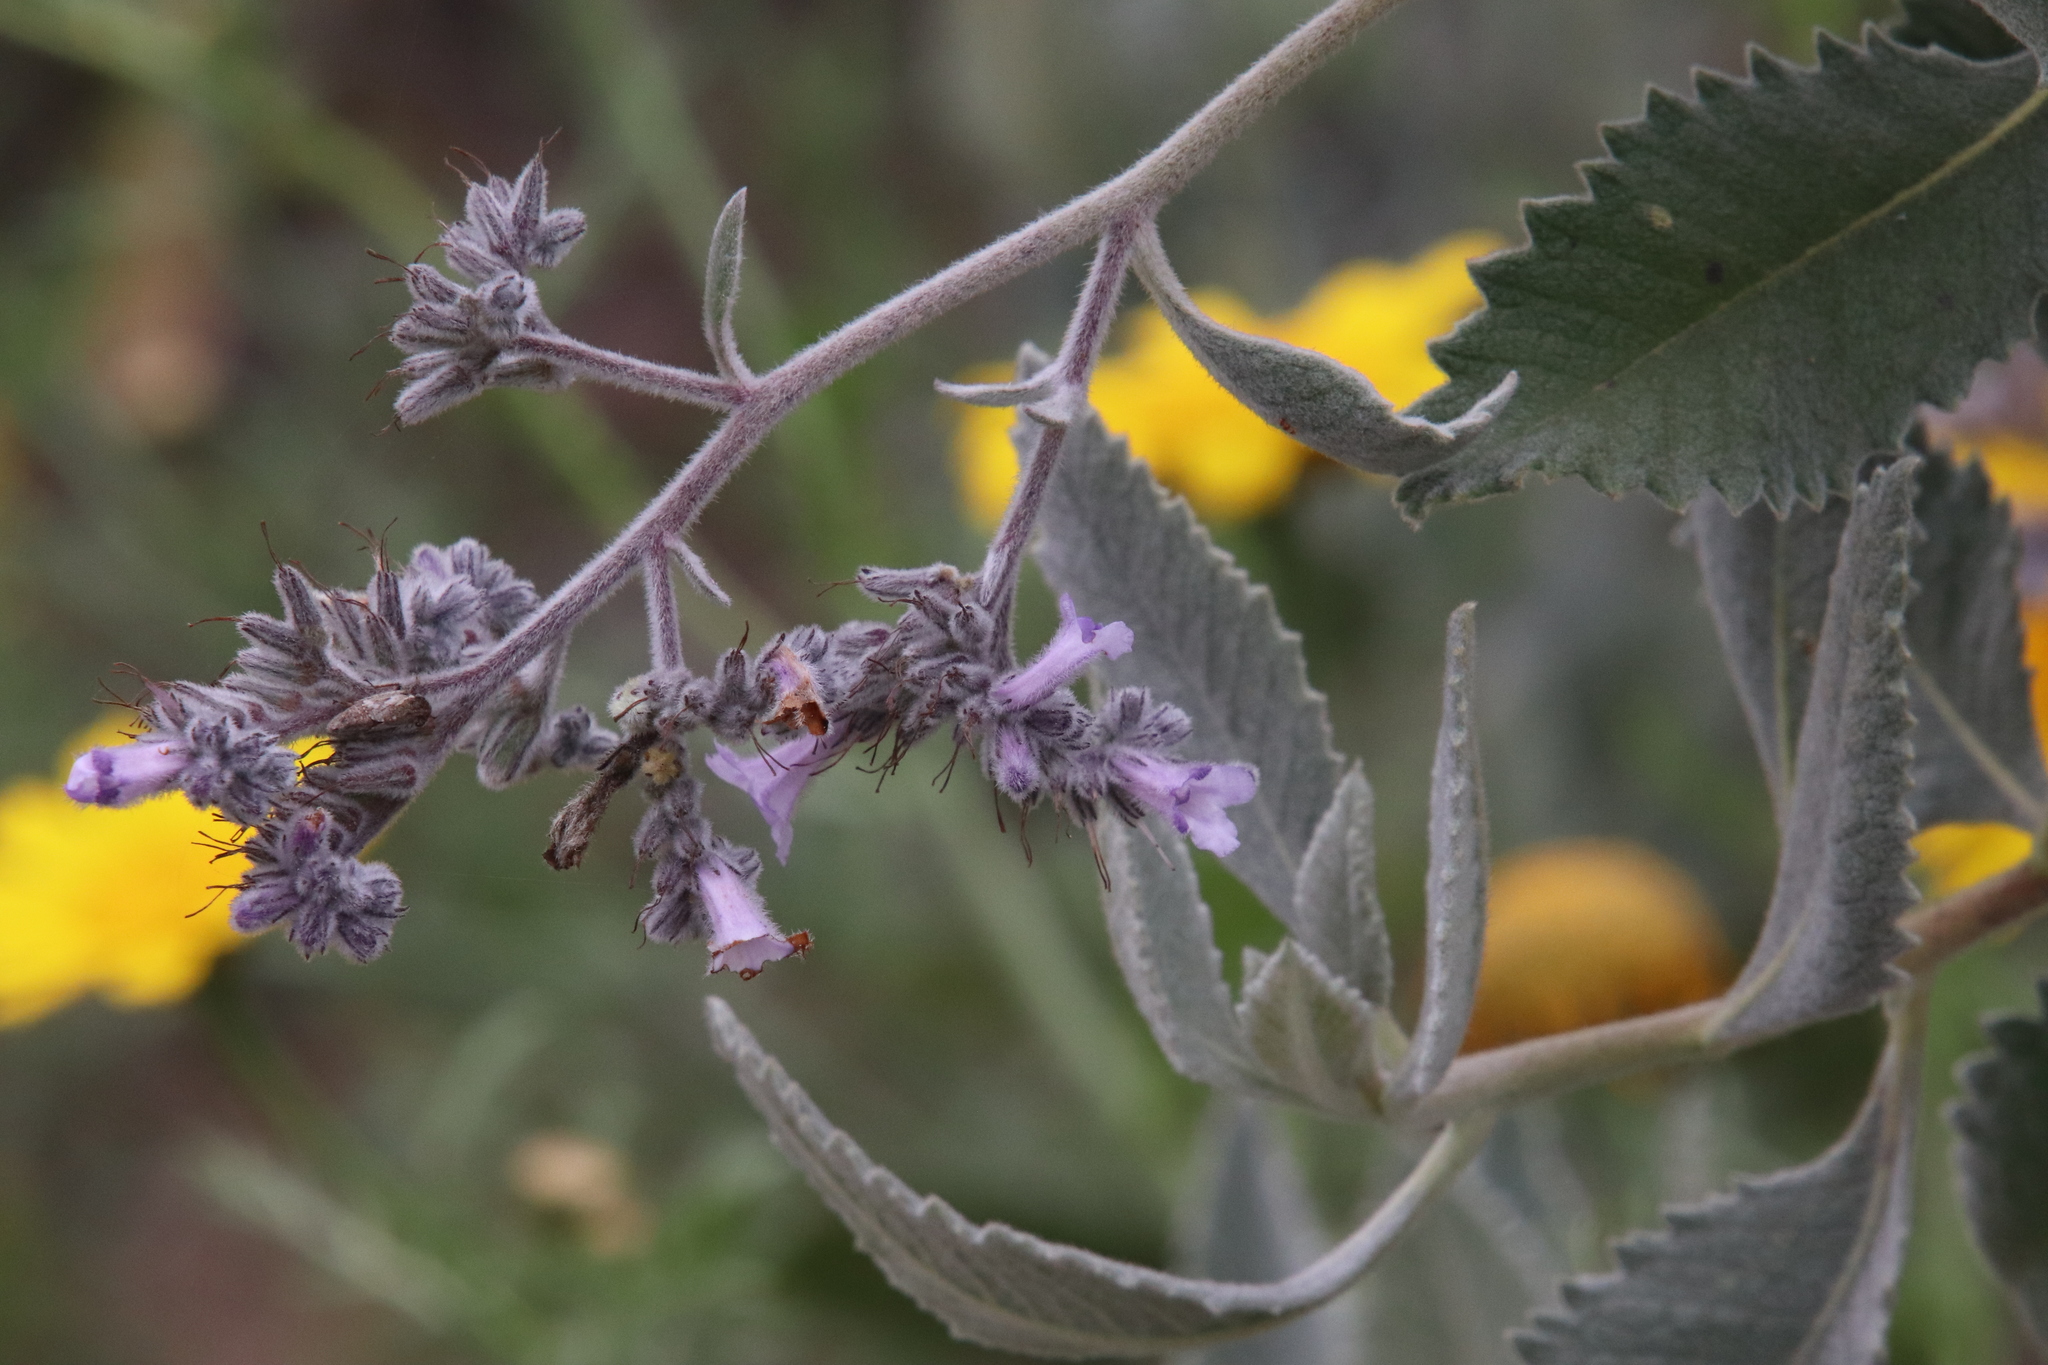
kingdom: Plantae
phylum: Tracheophyta
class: Magnoliopsida
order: Boraginales
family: Namaceae
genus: Eriodictyon
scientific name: Eriodictyon crassifolium
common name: Thick-leaf yerba-santa
